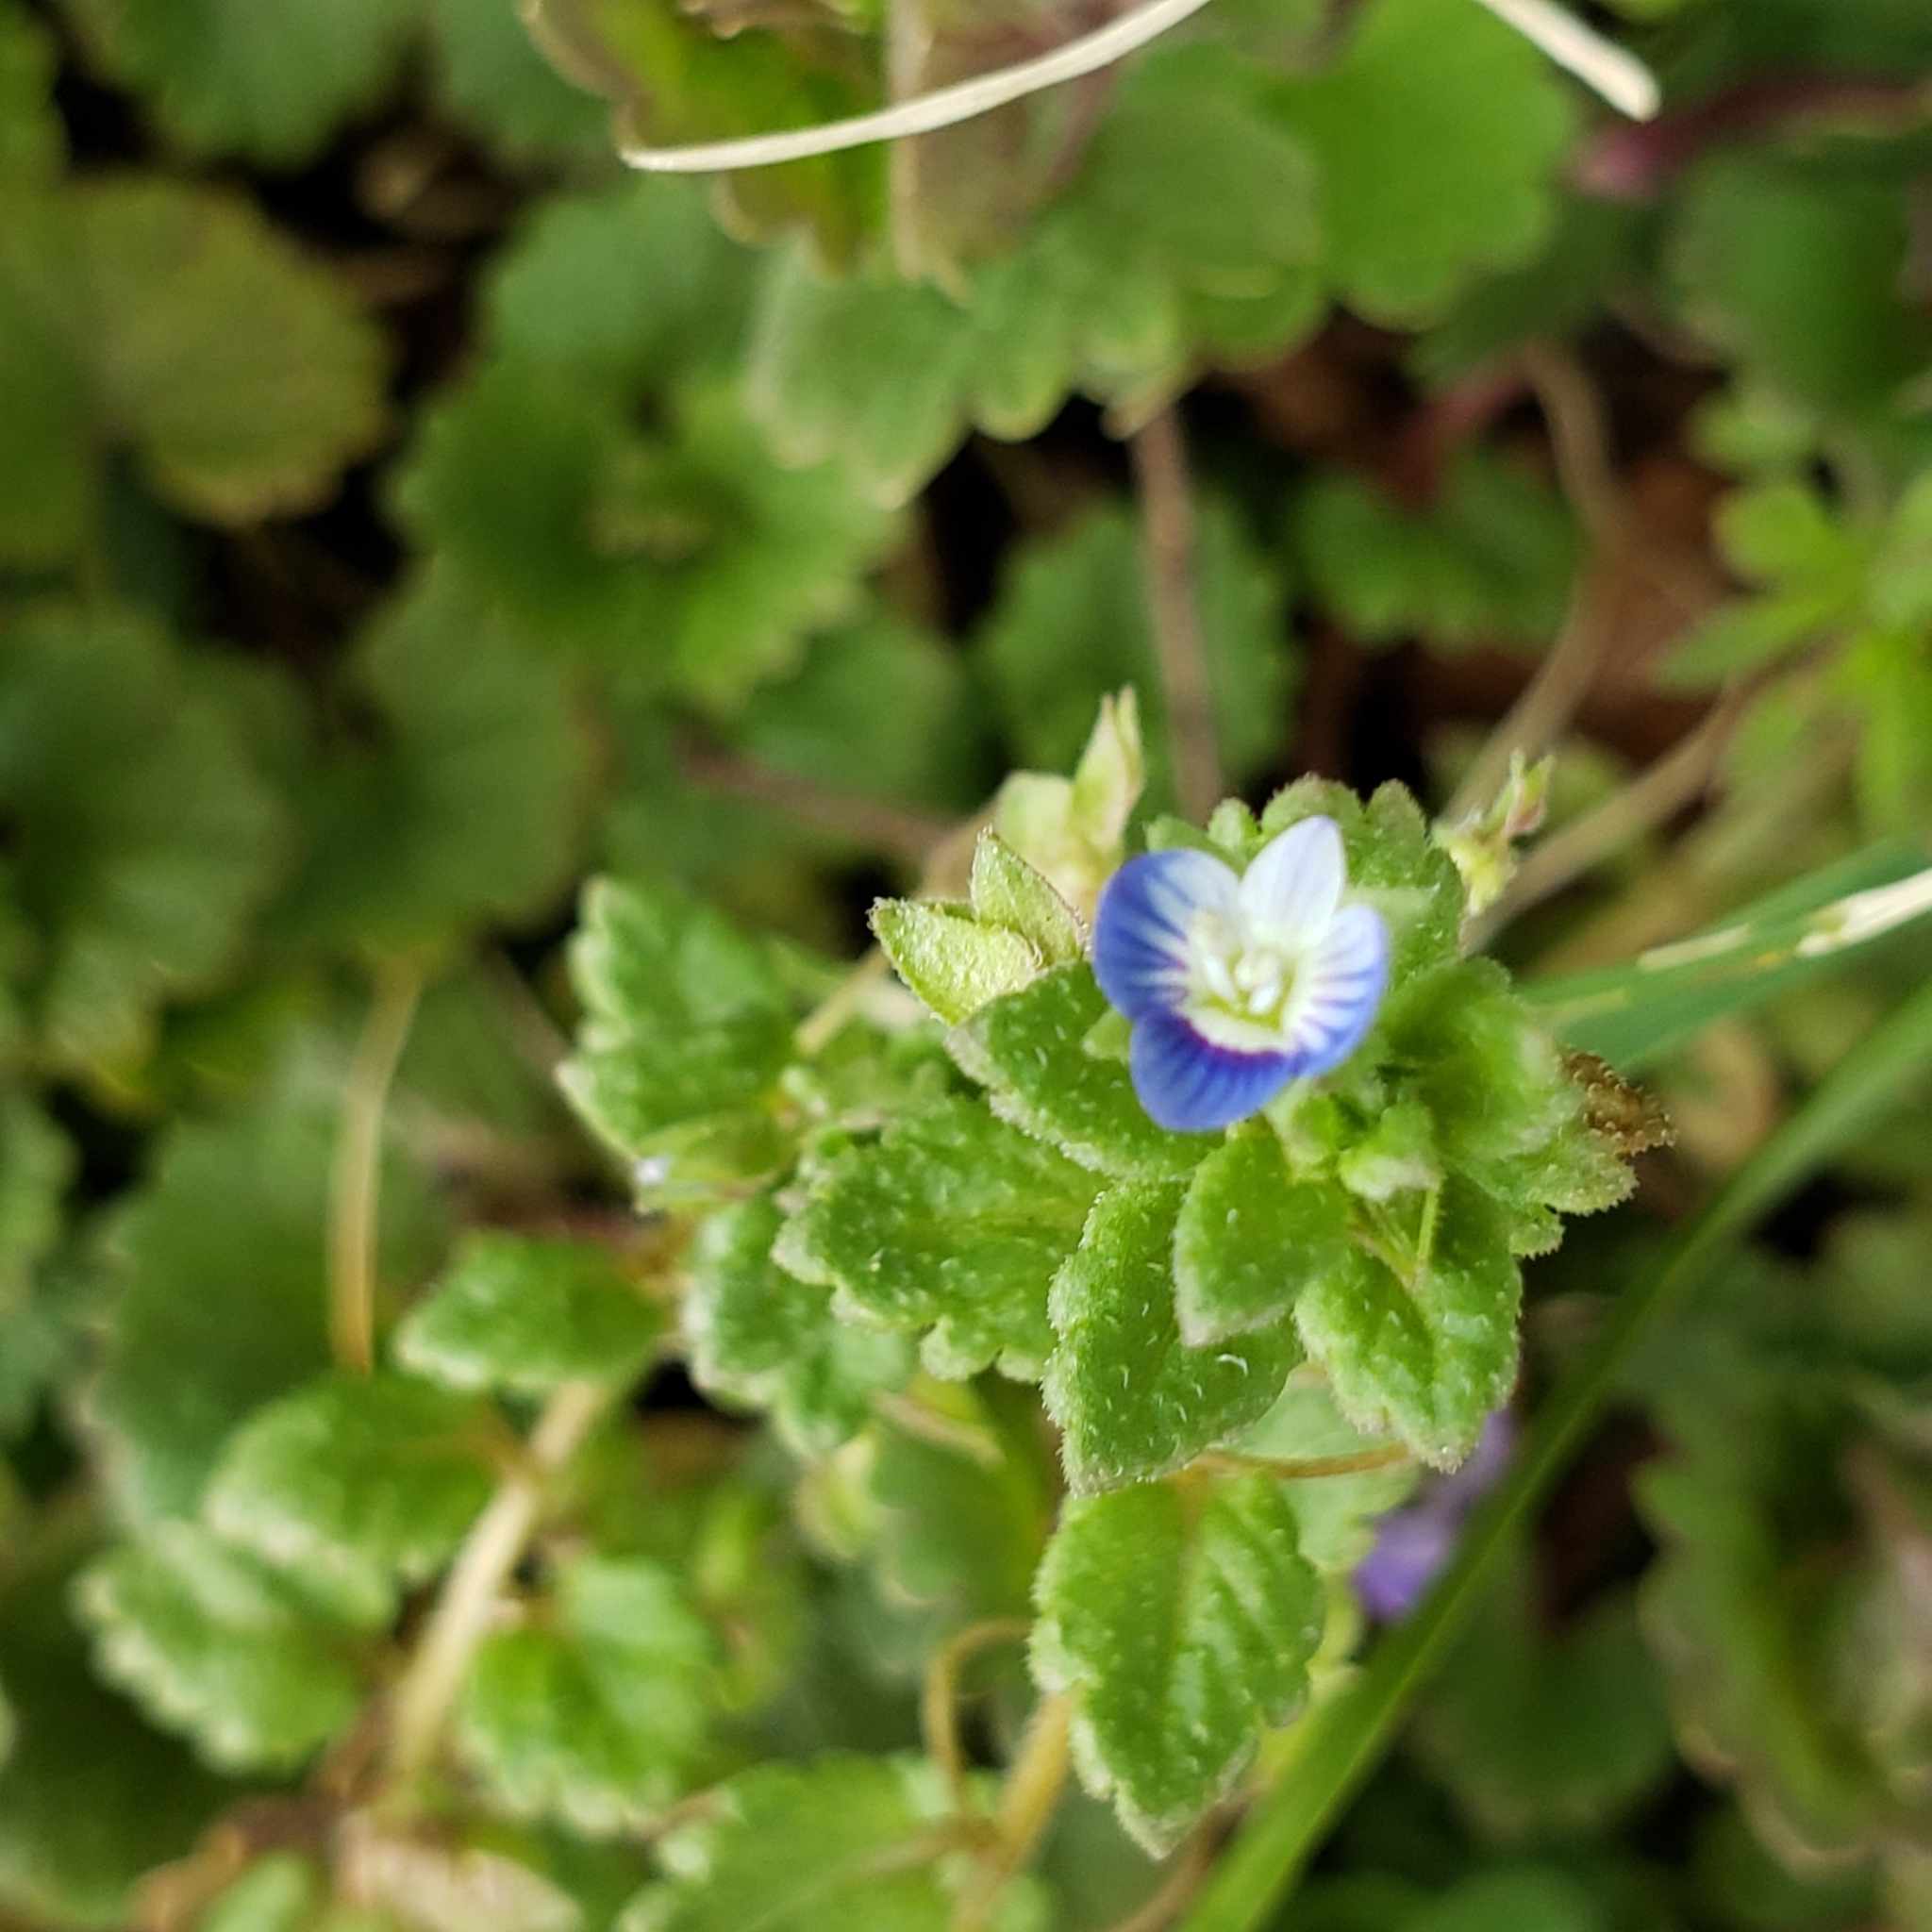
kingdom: Plantae
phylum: Tracheophyta
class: Magnoliopsida
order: Lamiales
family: Plantaginaceae
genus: Veronica
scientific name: Veronica polita
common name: Grey field-speedwell
